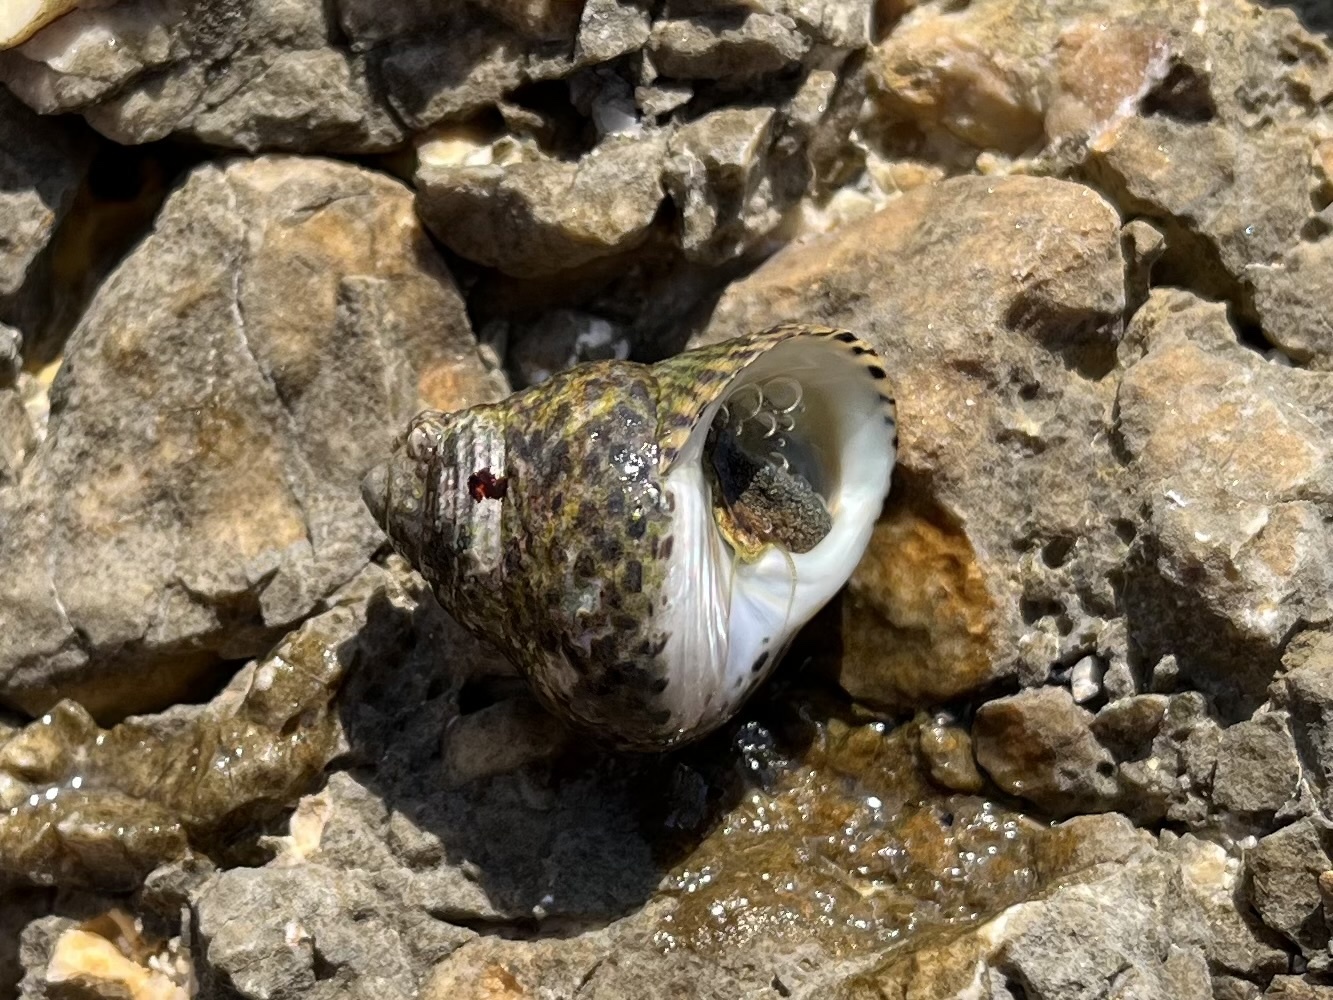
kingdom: Animalia
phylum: Mollusca
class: Gastropoda
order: Trochida
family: Trochidae
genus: Phorcus
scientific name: Phorcus turbinatus
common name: Turbinate monodont
